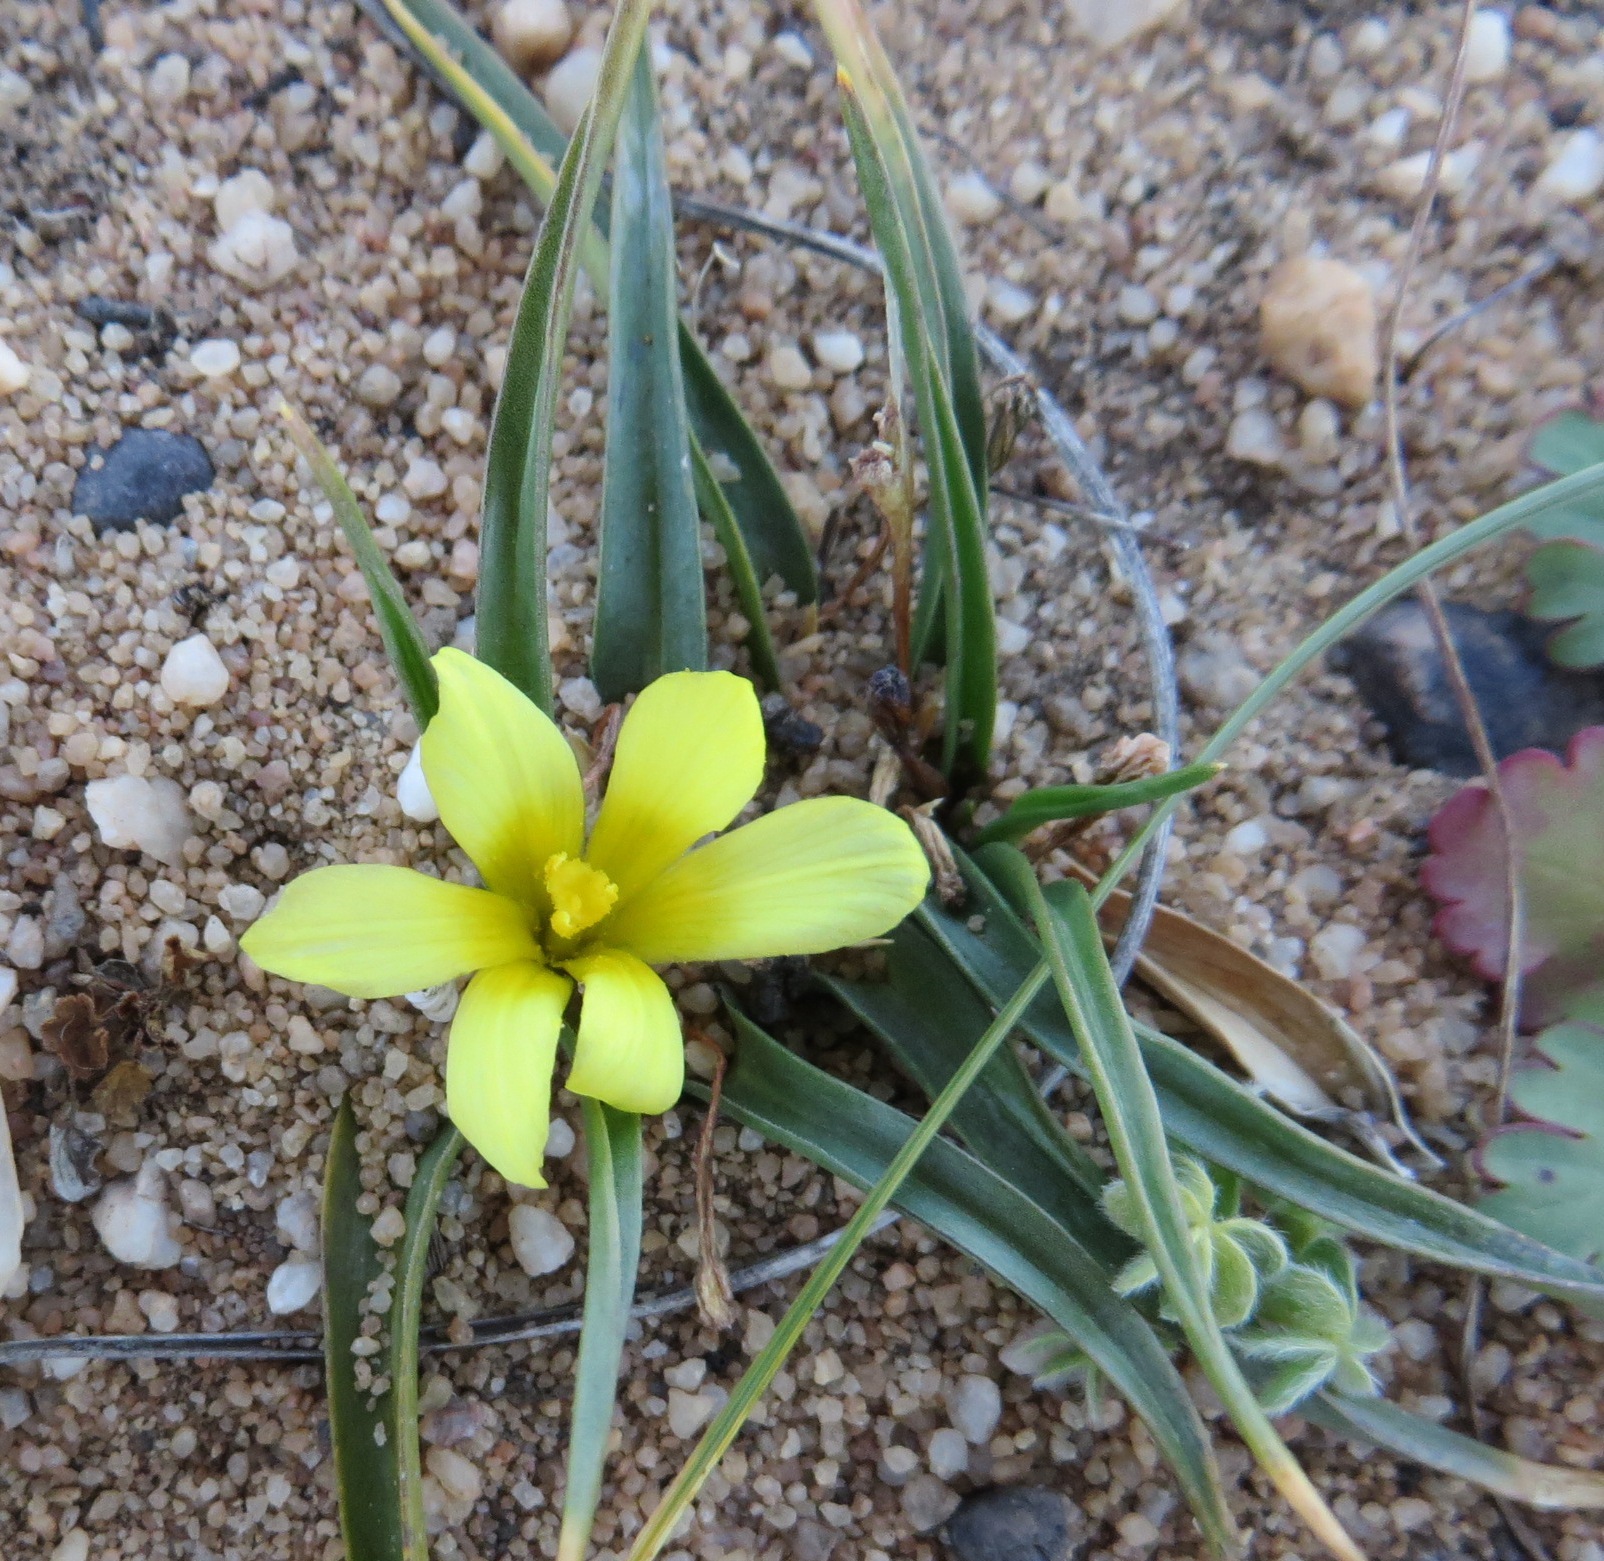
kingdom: Plantae
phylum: Tracheophyta
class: Liliopsida
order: Asparagales
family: Iridaceae
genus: Moraea
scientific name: Moraea fugacissima
